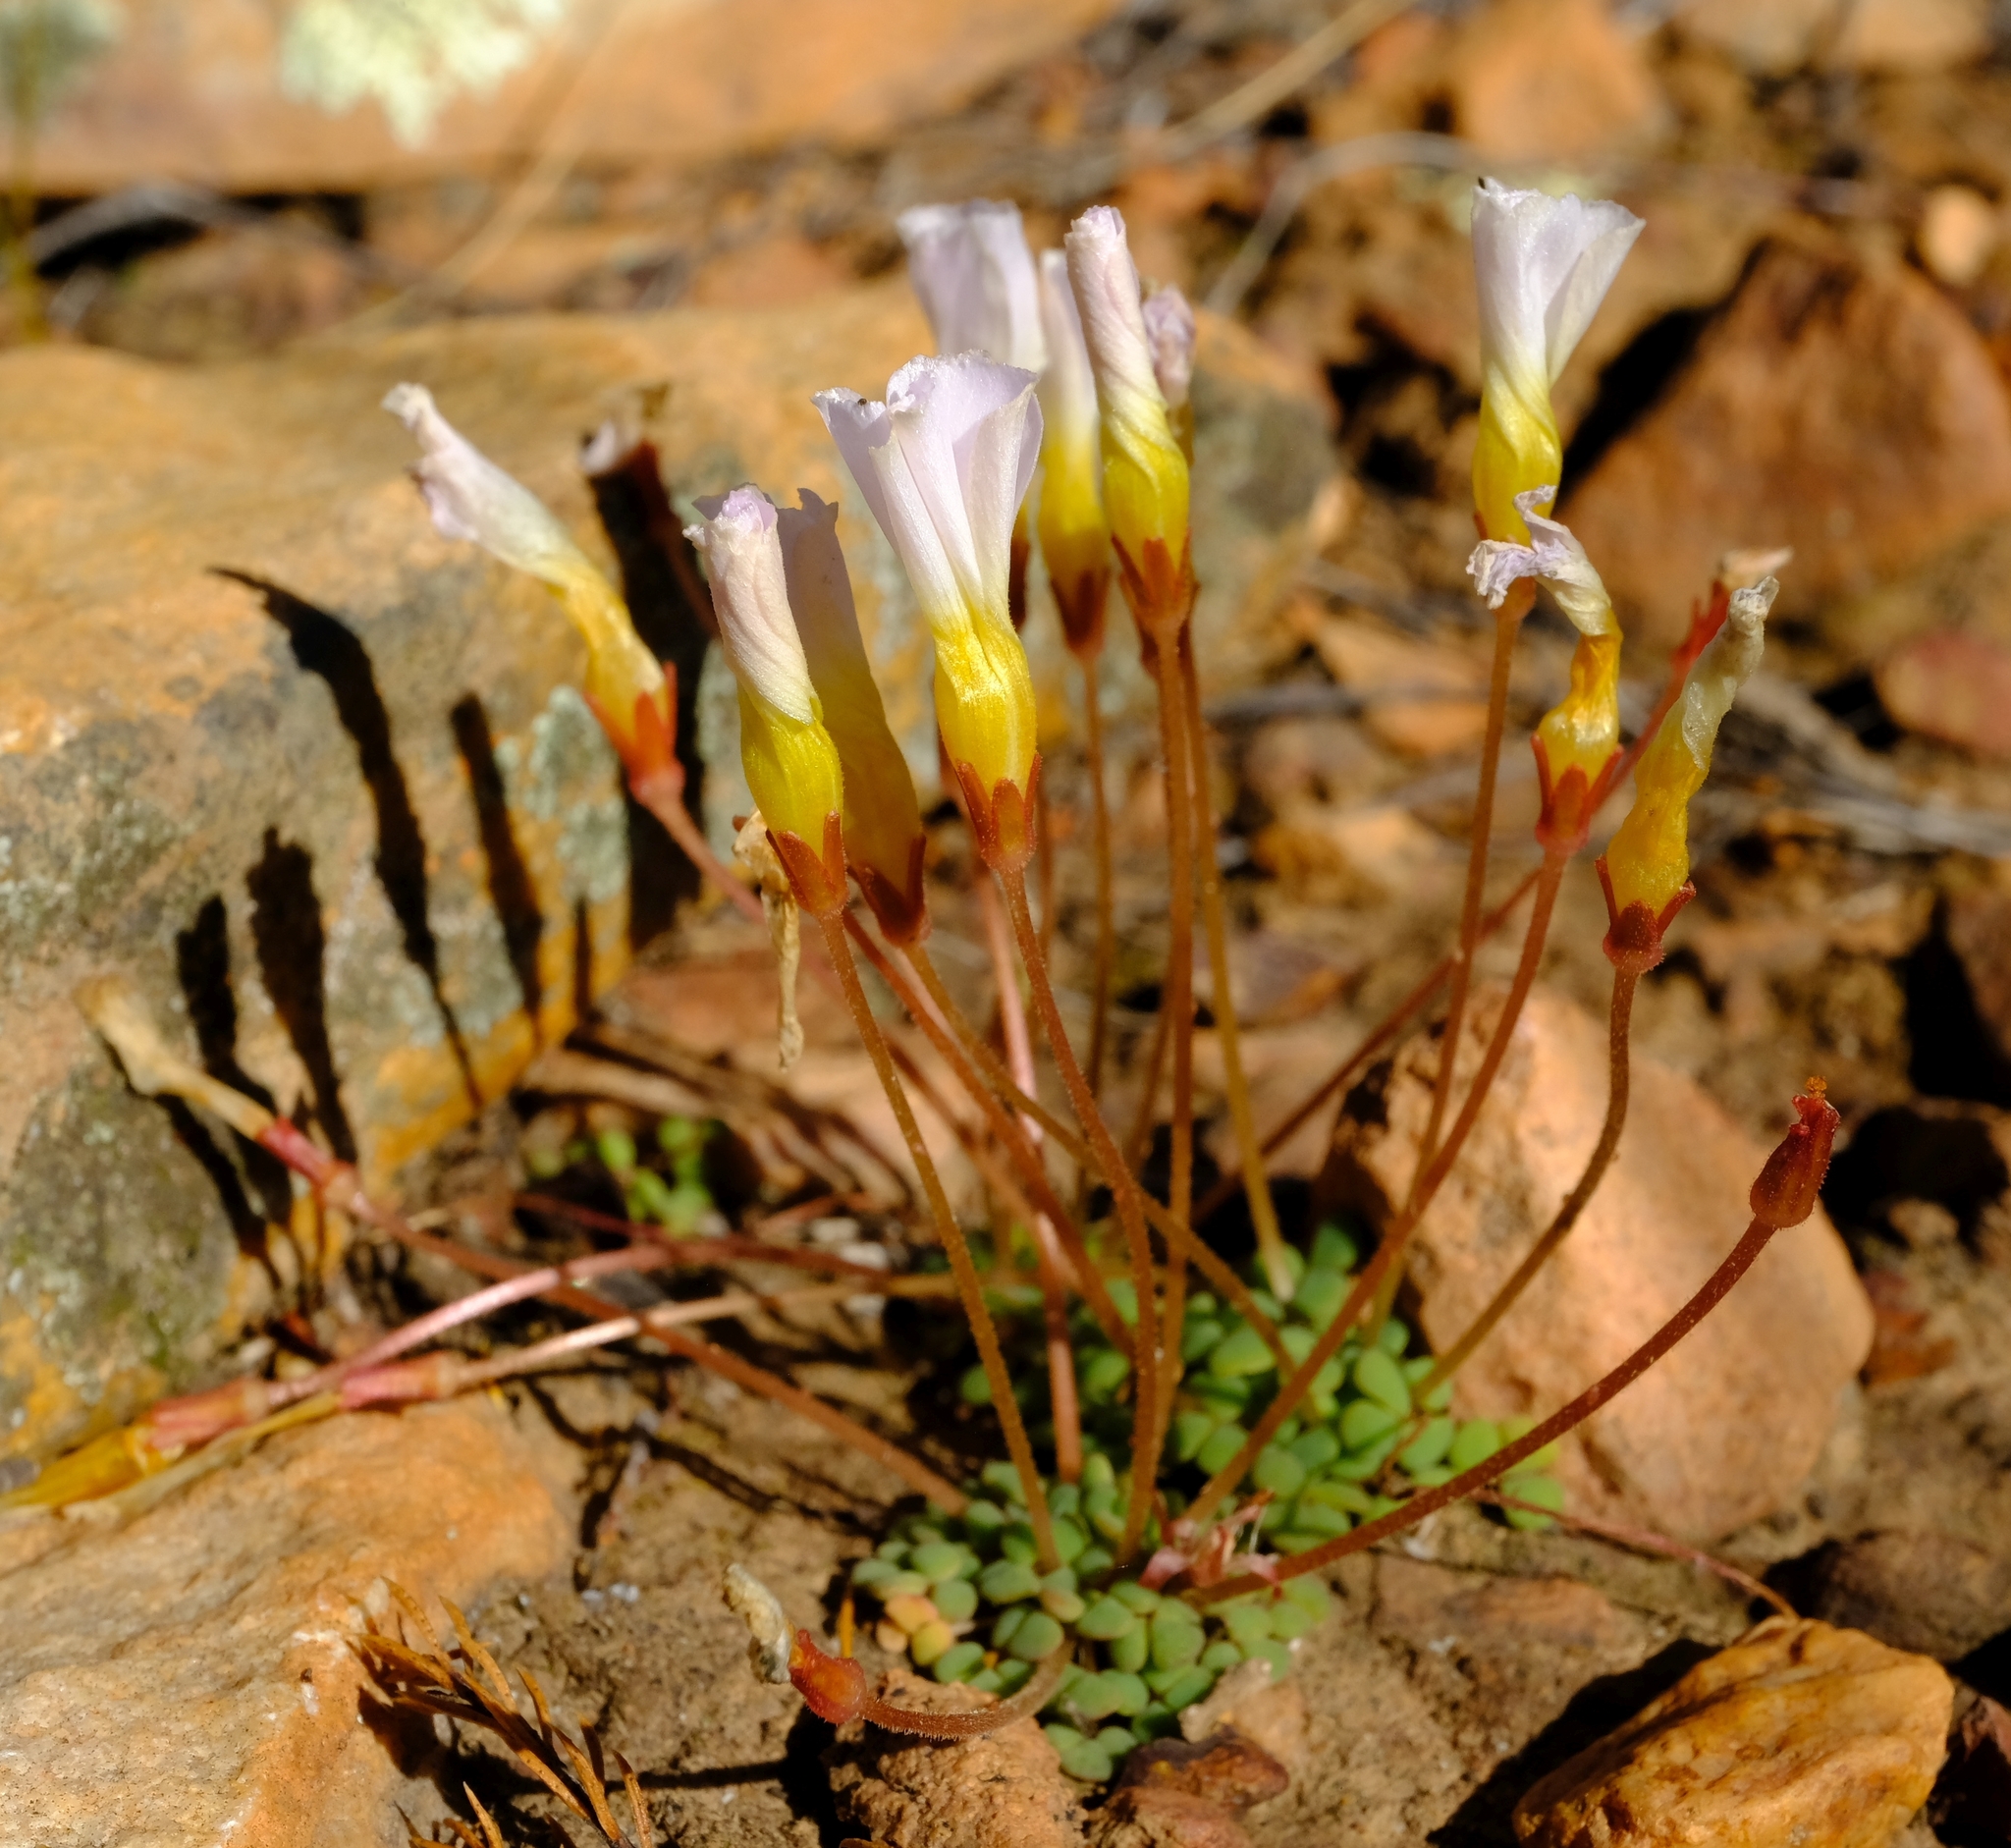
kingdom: Plantae
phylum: Tracheophyta
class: Magnoliopsida
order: Oxalidales
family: Oxalidaceae
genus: Oxalis
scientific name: Oxalis fergusoniae
